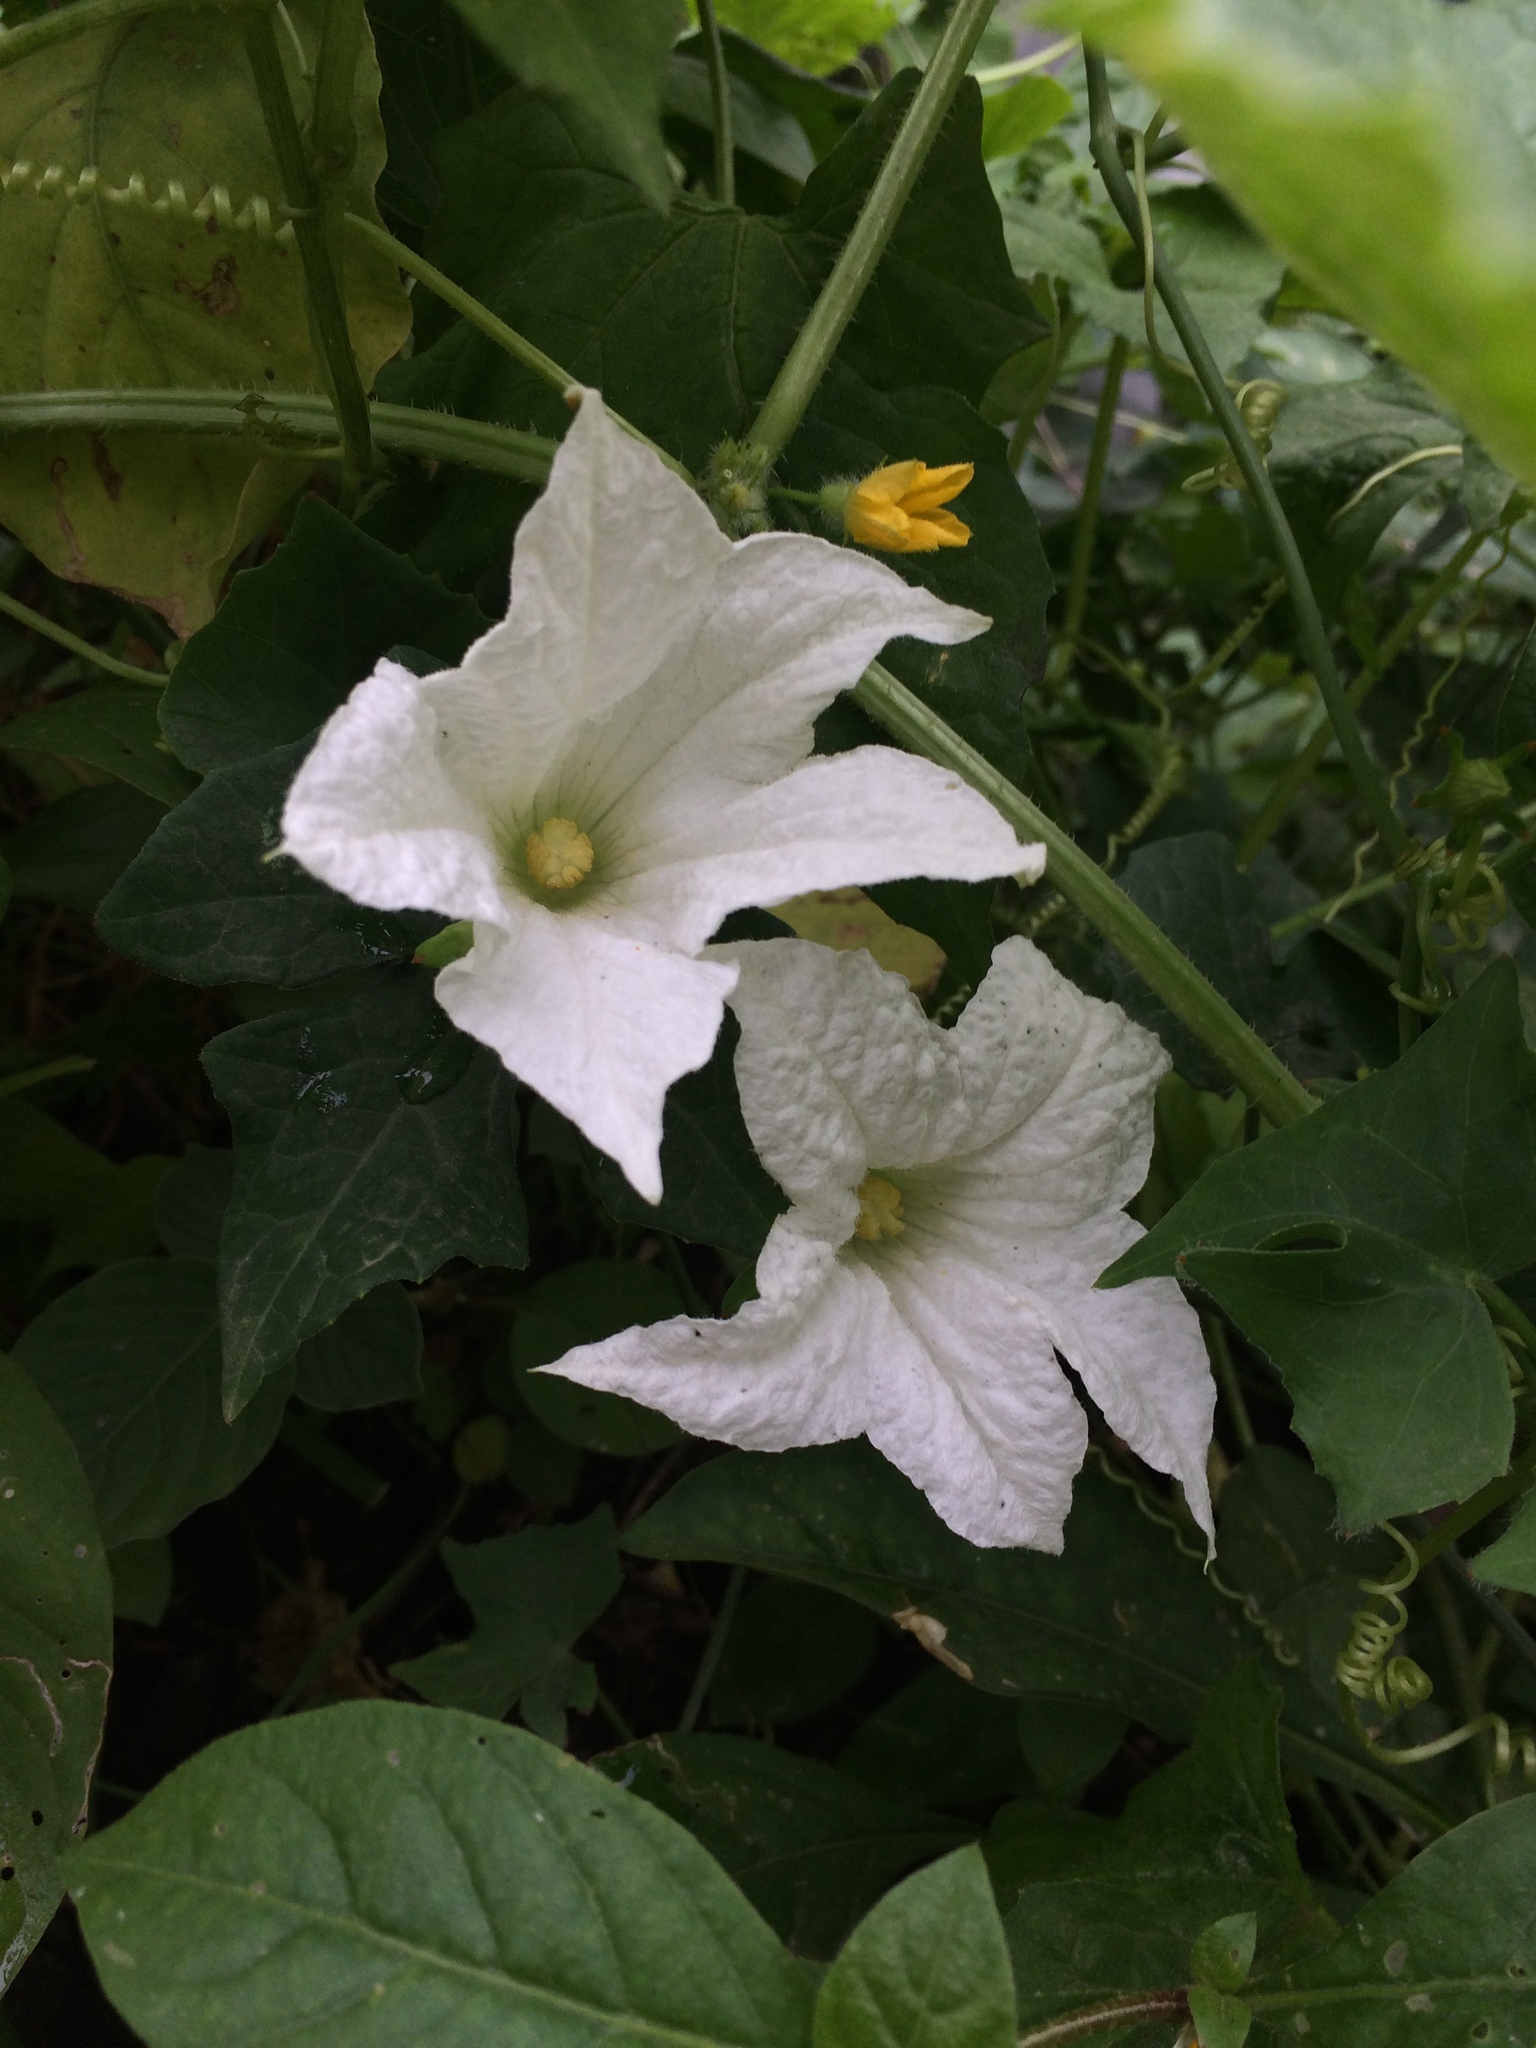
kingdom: Plantae
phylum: Tracheophyta
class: Magnoliopsida
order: Cucurbitales
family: Cucurbitaceae
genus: Coccinia
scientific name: Coccinia grandis
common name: Ivy gourd
